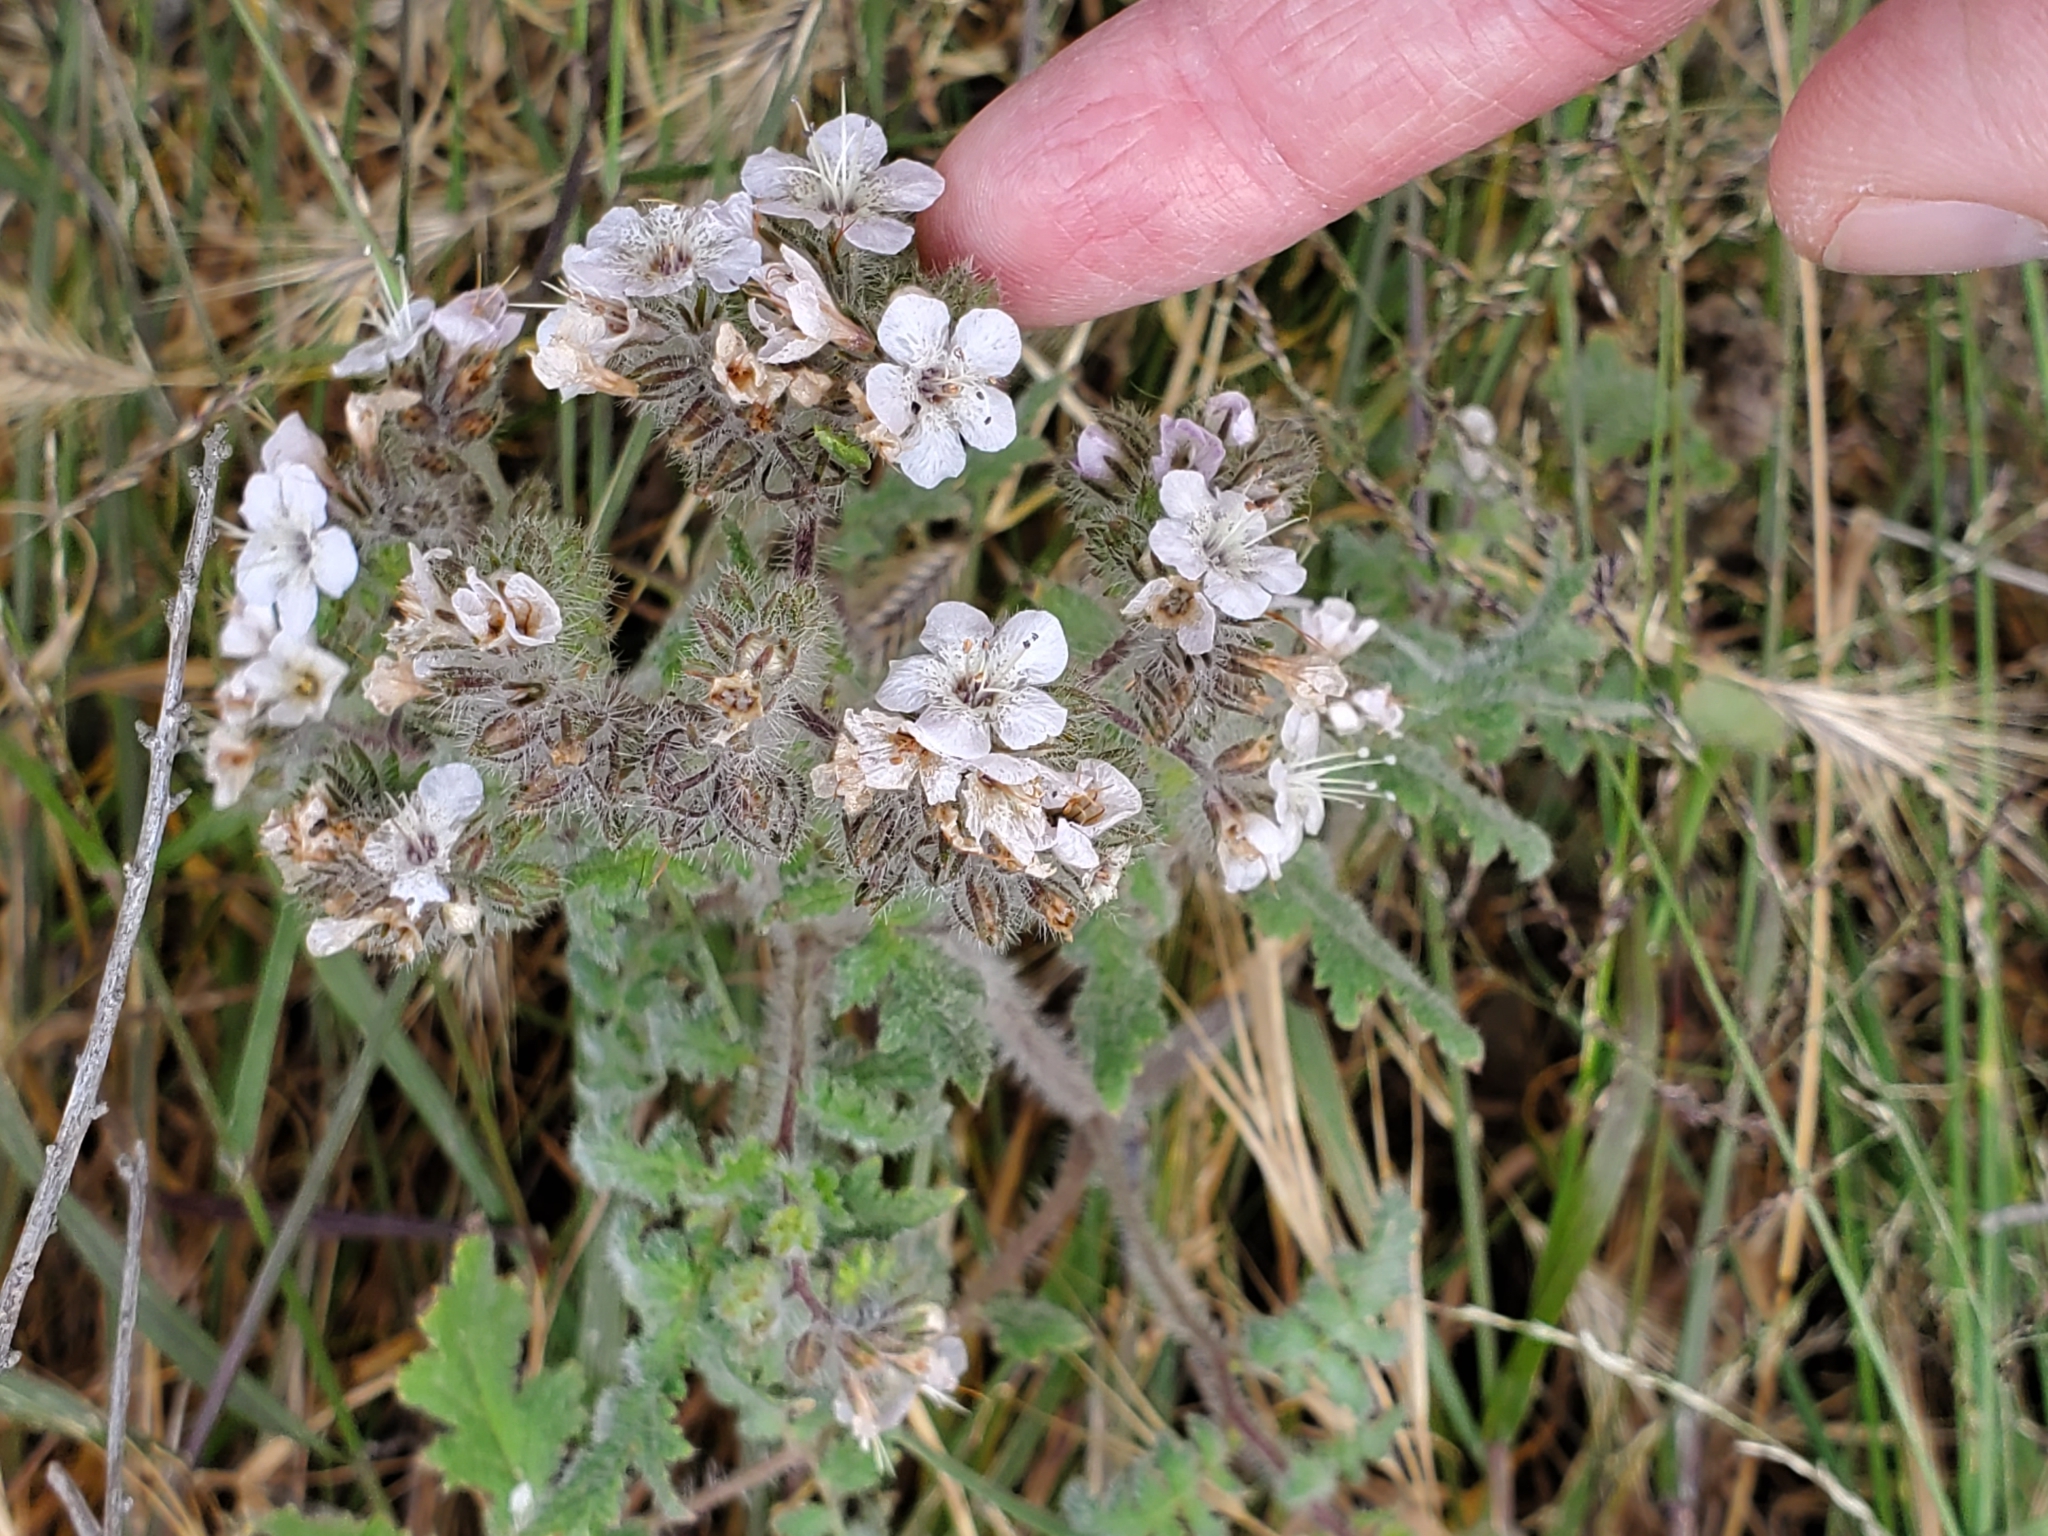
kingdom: Plantae
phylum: Tracheophyta
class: Magnoliopsida
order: Boraginales
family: Hydrophyllaceae
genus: Phacelia
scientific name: Phacelia cicutaria
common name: Caterpillar phacelia
